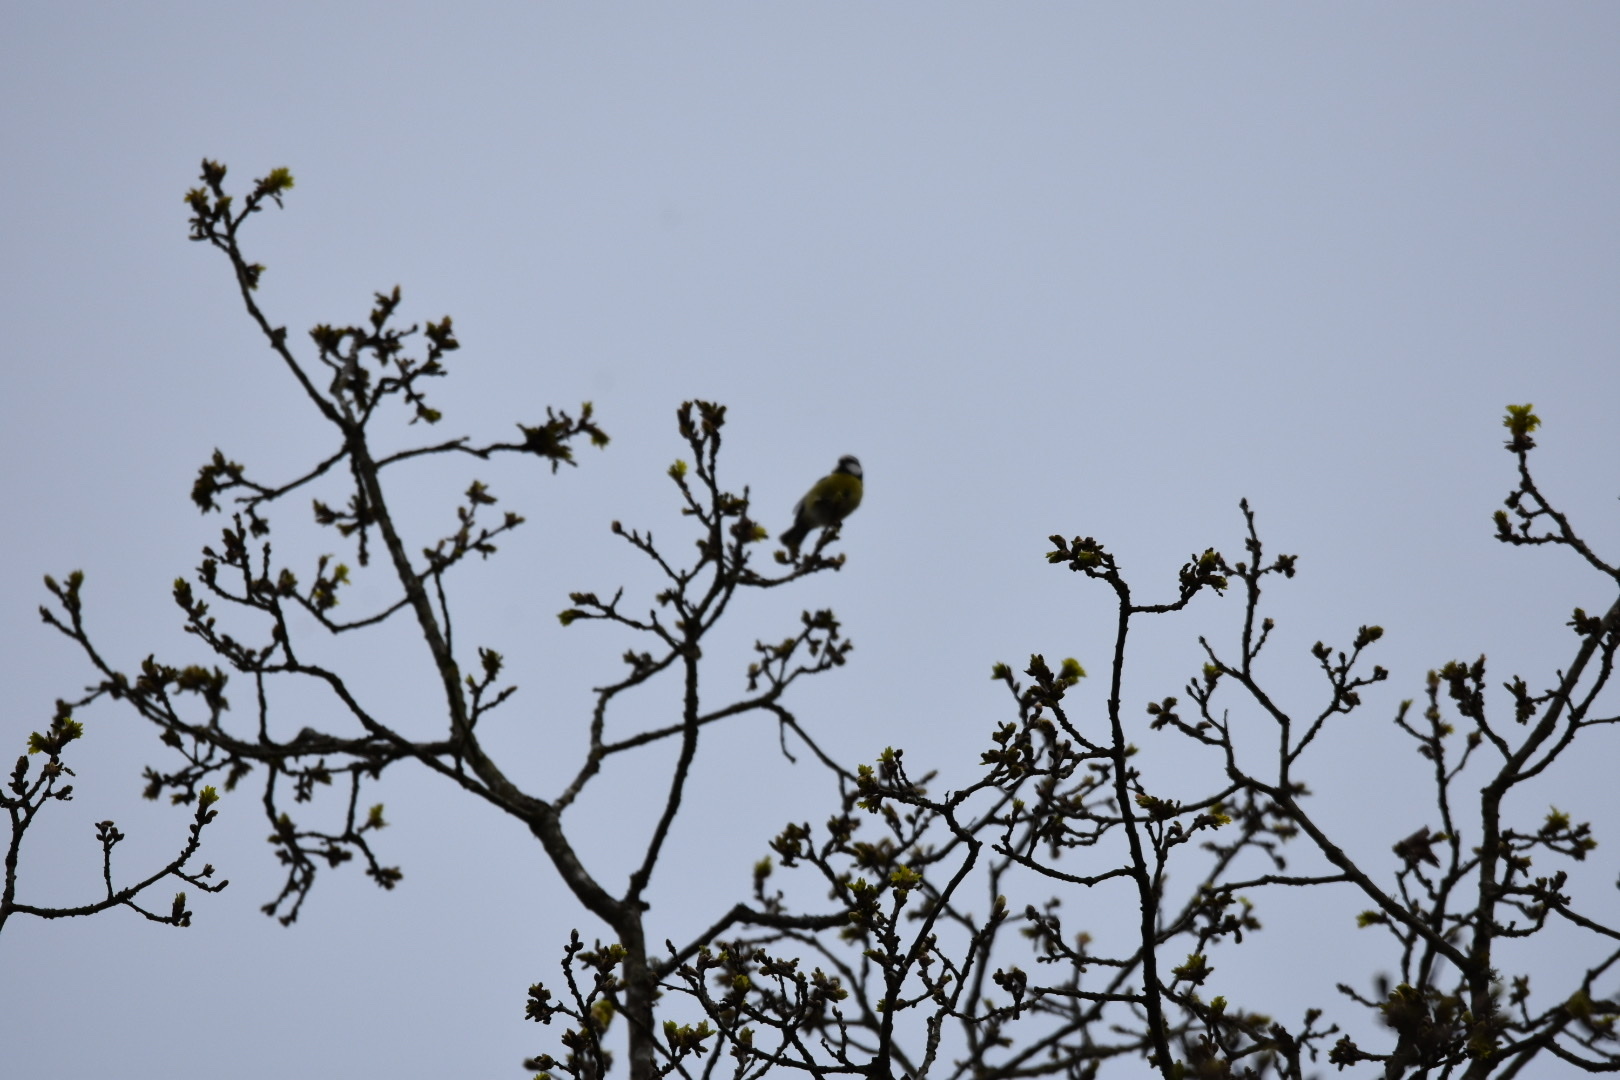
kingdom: Animalia
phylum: Chordata
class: Aves
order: Passeriformes
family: Paridae
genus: Cyanistes
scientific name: Cyanistes caeruleus
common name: Eurasian blue tit
